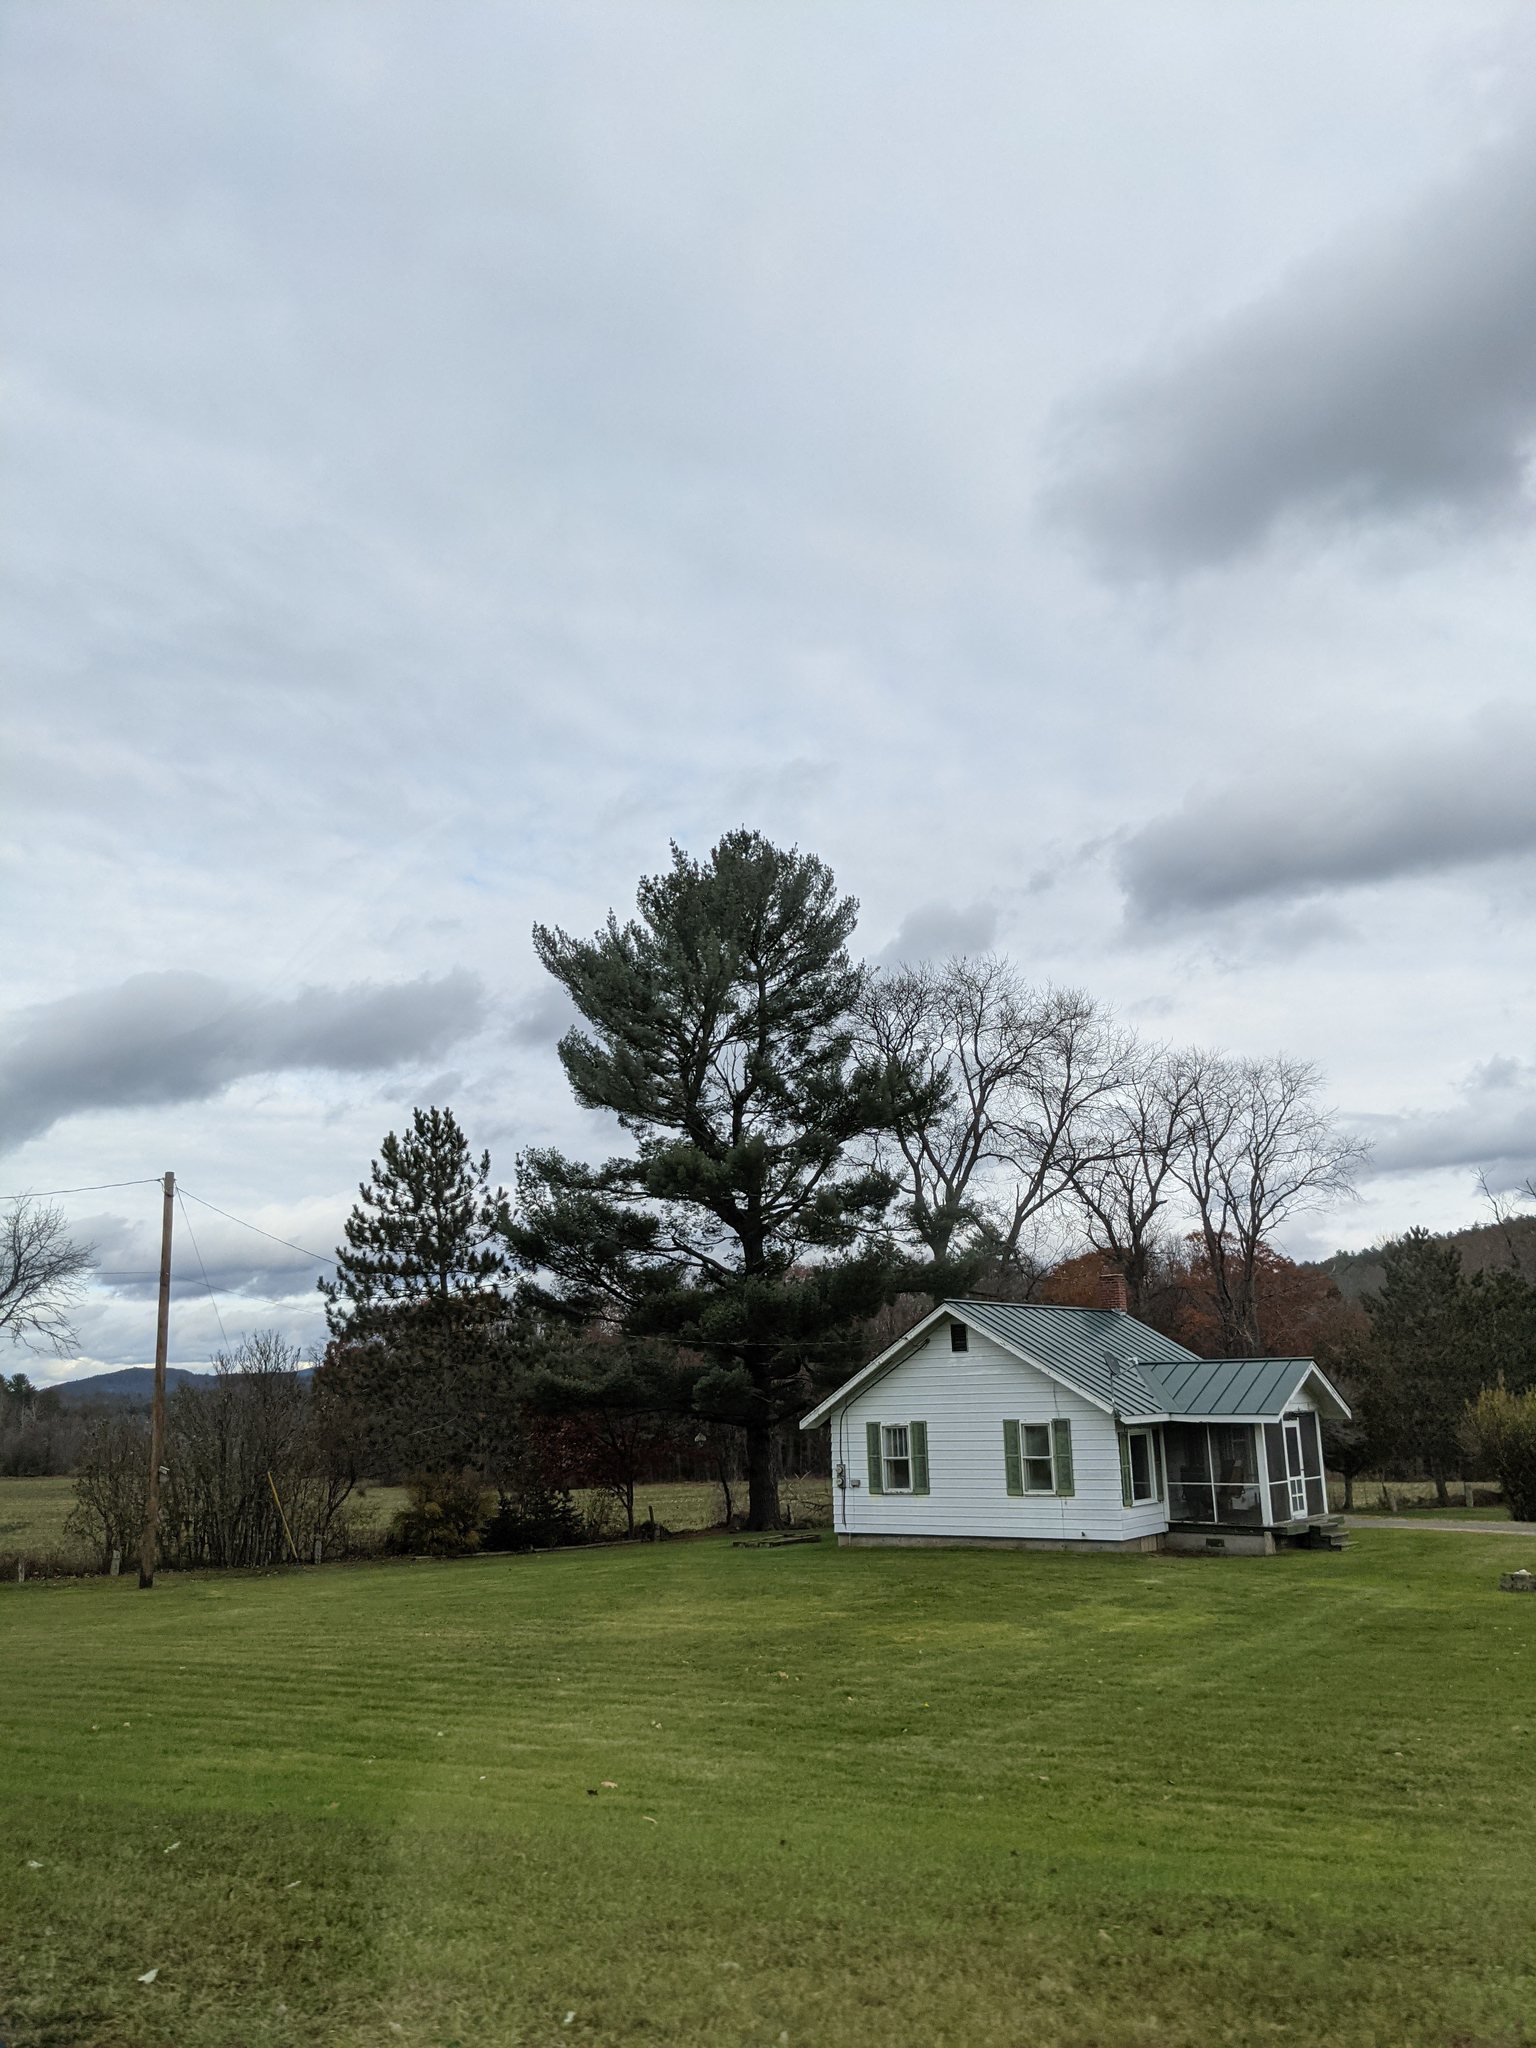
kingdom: Plantae
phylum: Tracheophyta
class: Pinopsida
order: Pinales
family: Pinaceae
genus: Pinus
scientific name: Pinus strobus
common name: Weymouth pine
